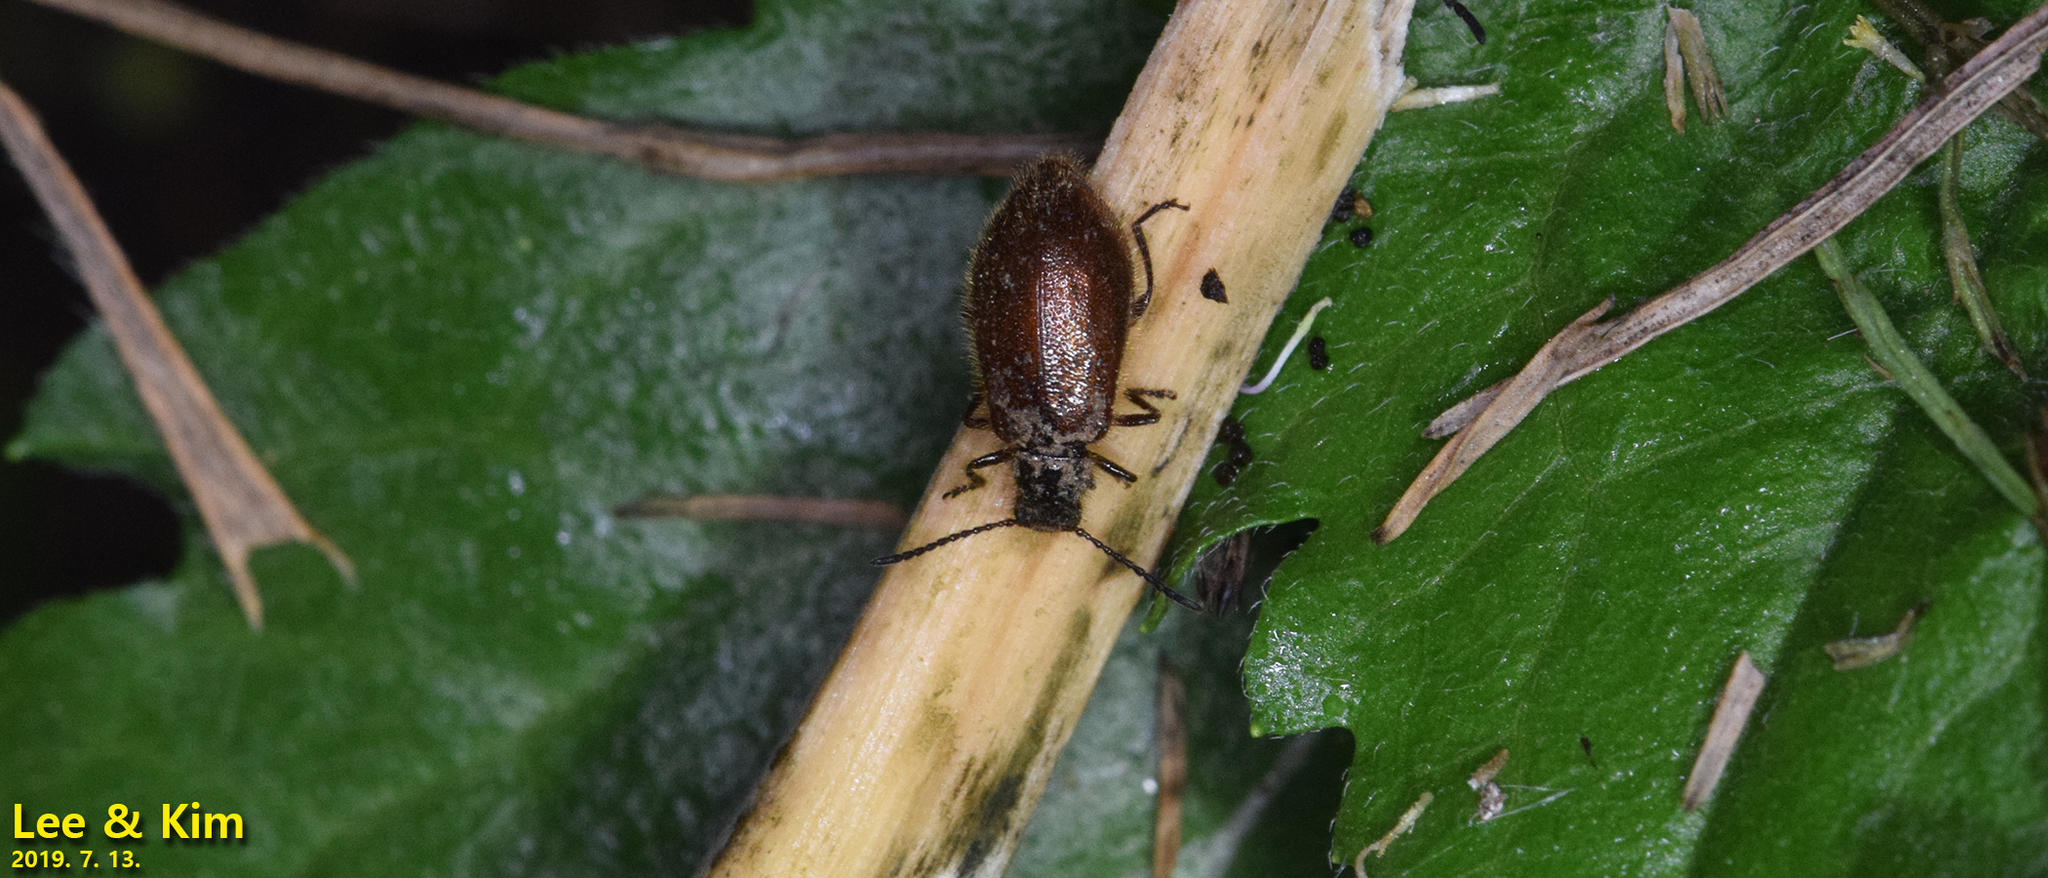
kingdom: Animalia
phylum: Arthropoda
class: Insecta
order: Coleoptera
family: Tenebrionidae
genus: Lagria
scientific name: Lagria nigricollis
